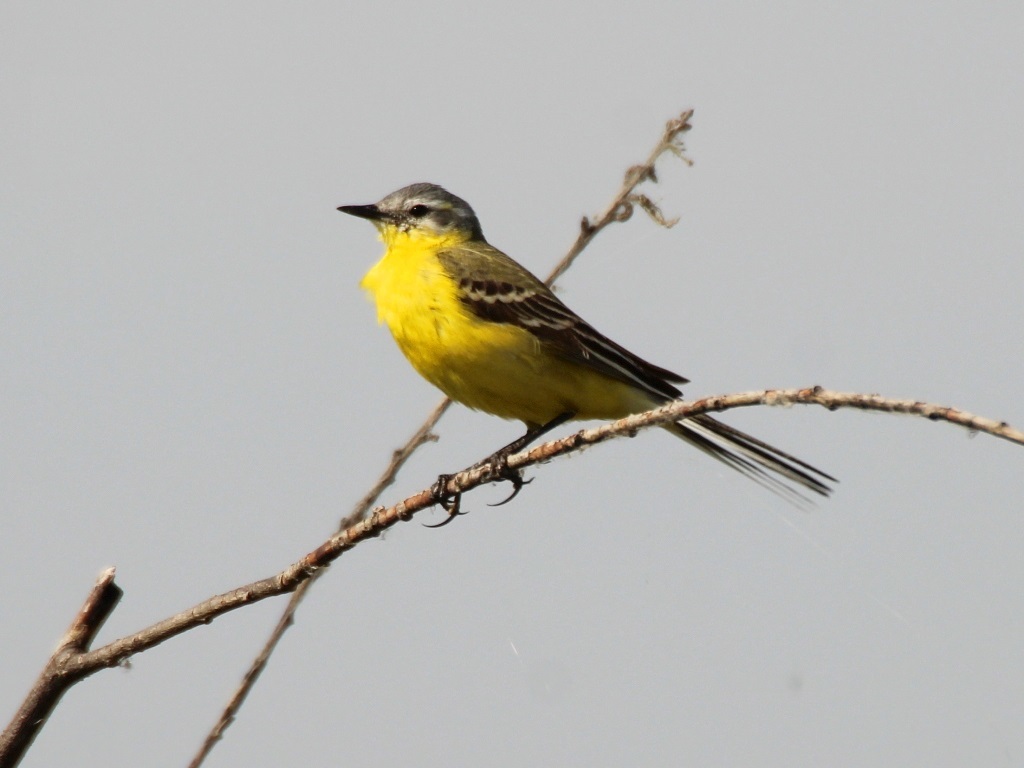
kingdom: Animalia
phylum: Chordata
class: Aves
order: Passeriformes
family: Motacillidae
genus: Motacilla
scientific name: Motacilla flava
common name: Western yellow wagtail
